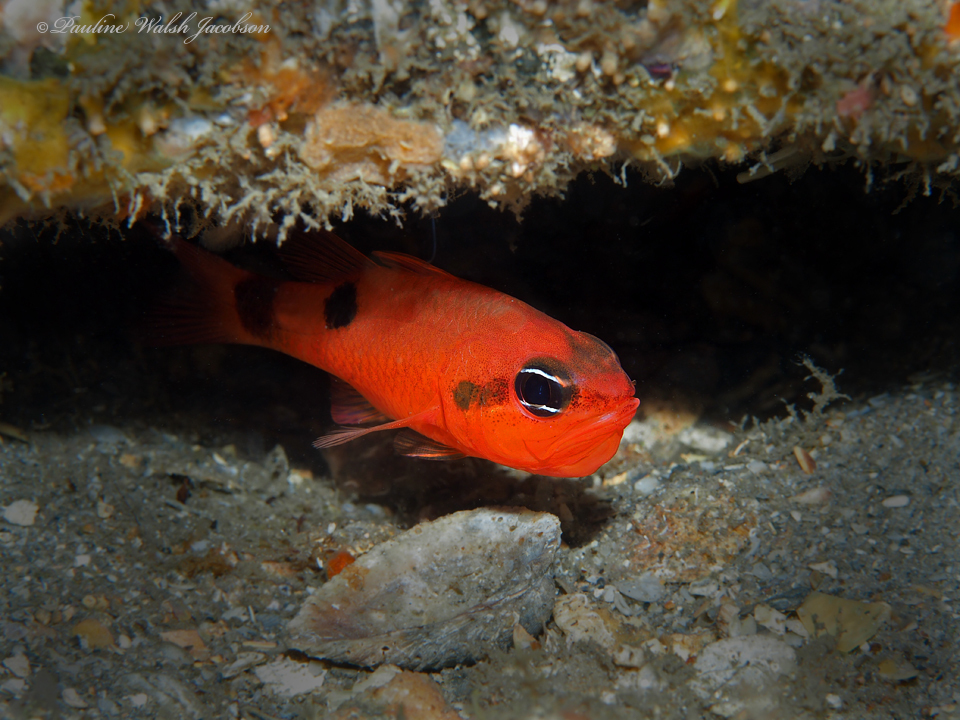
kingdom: Animalia
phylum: Chordata
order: Perciformes
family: Apogonidae
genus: Apogon
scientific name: Apogon maculatus
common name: Flamefish
